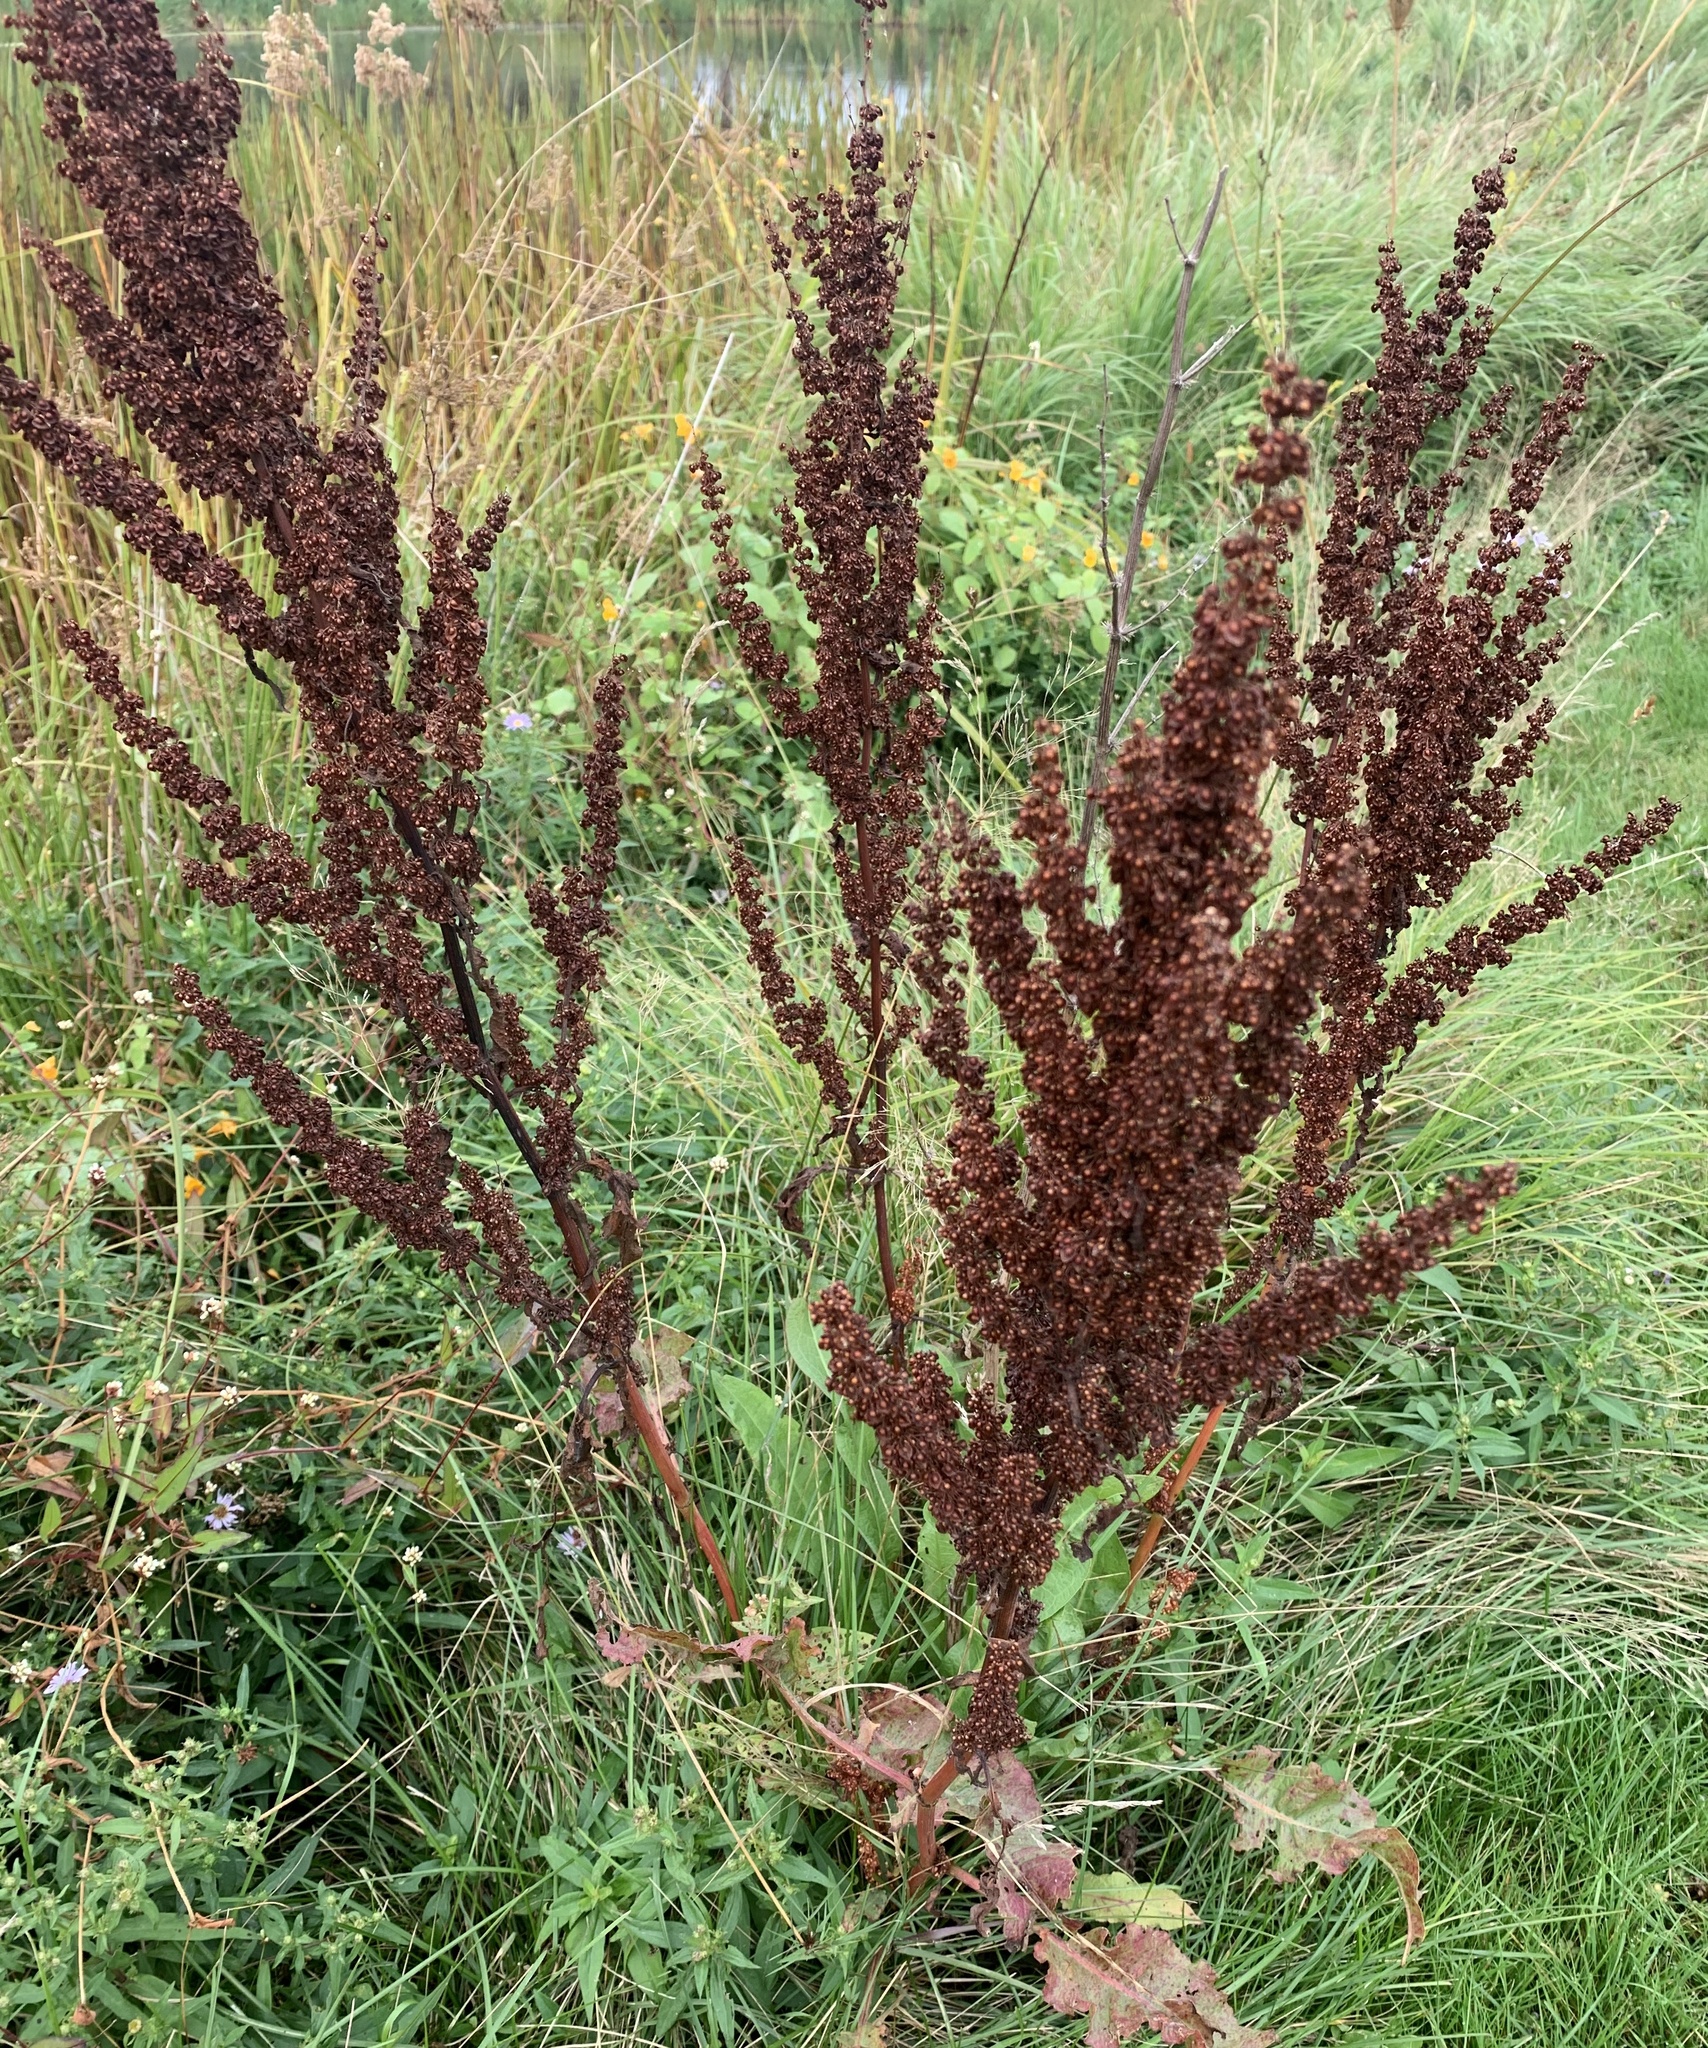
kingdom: Plantae
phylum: Tracheophyta
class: Magnoliopsida
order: Caryophyllales
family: Polygonaceae
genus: Rumex
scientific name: Rumex crispus
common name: Curled dock
